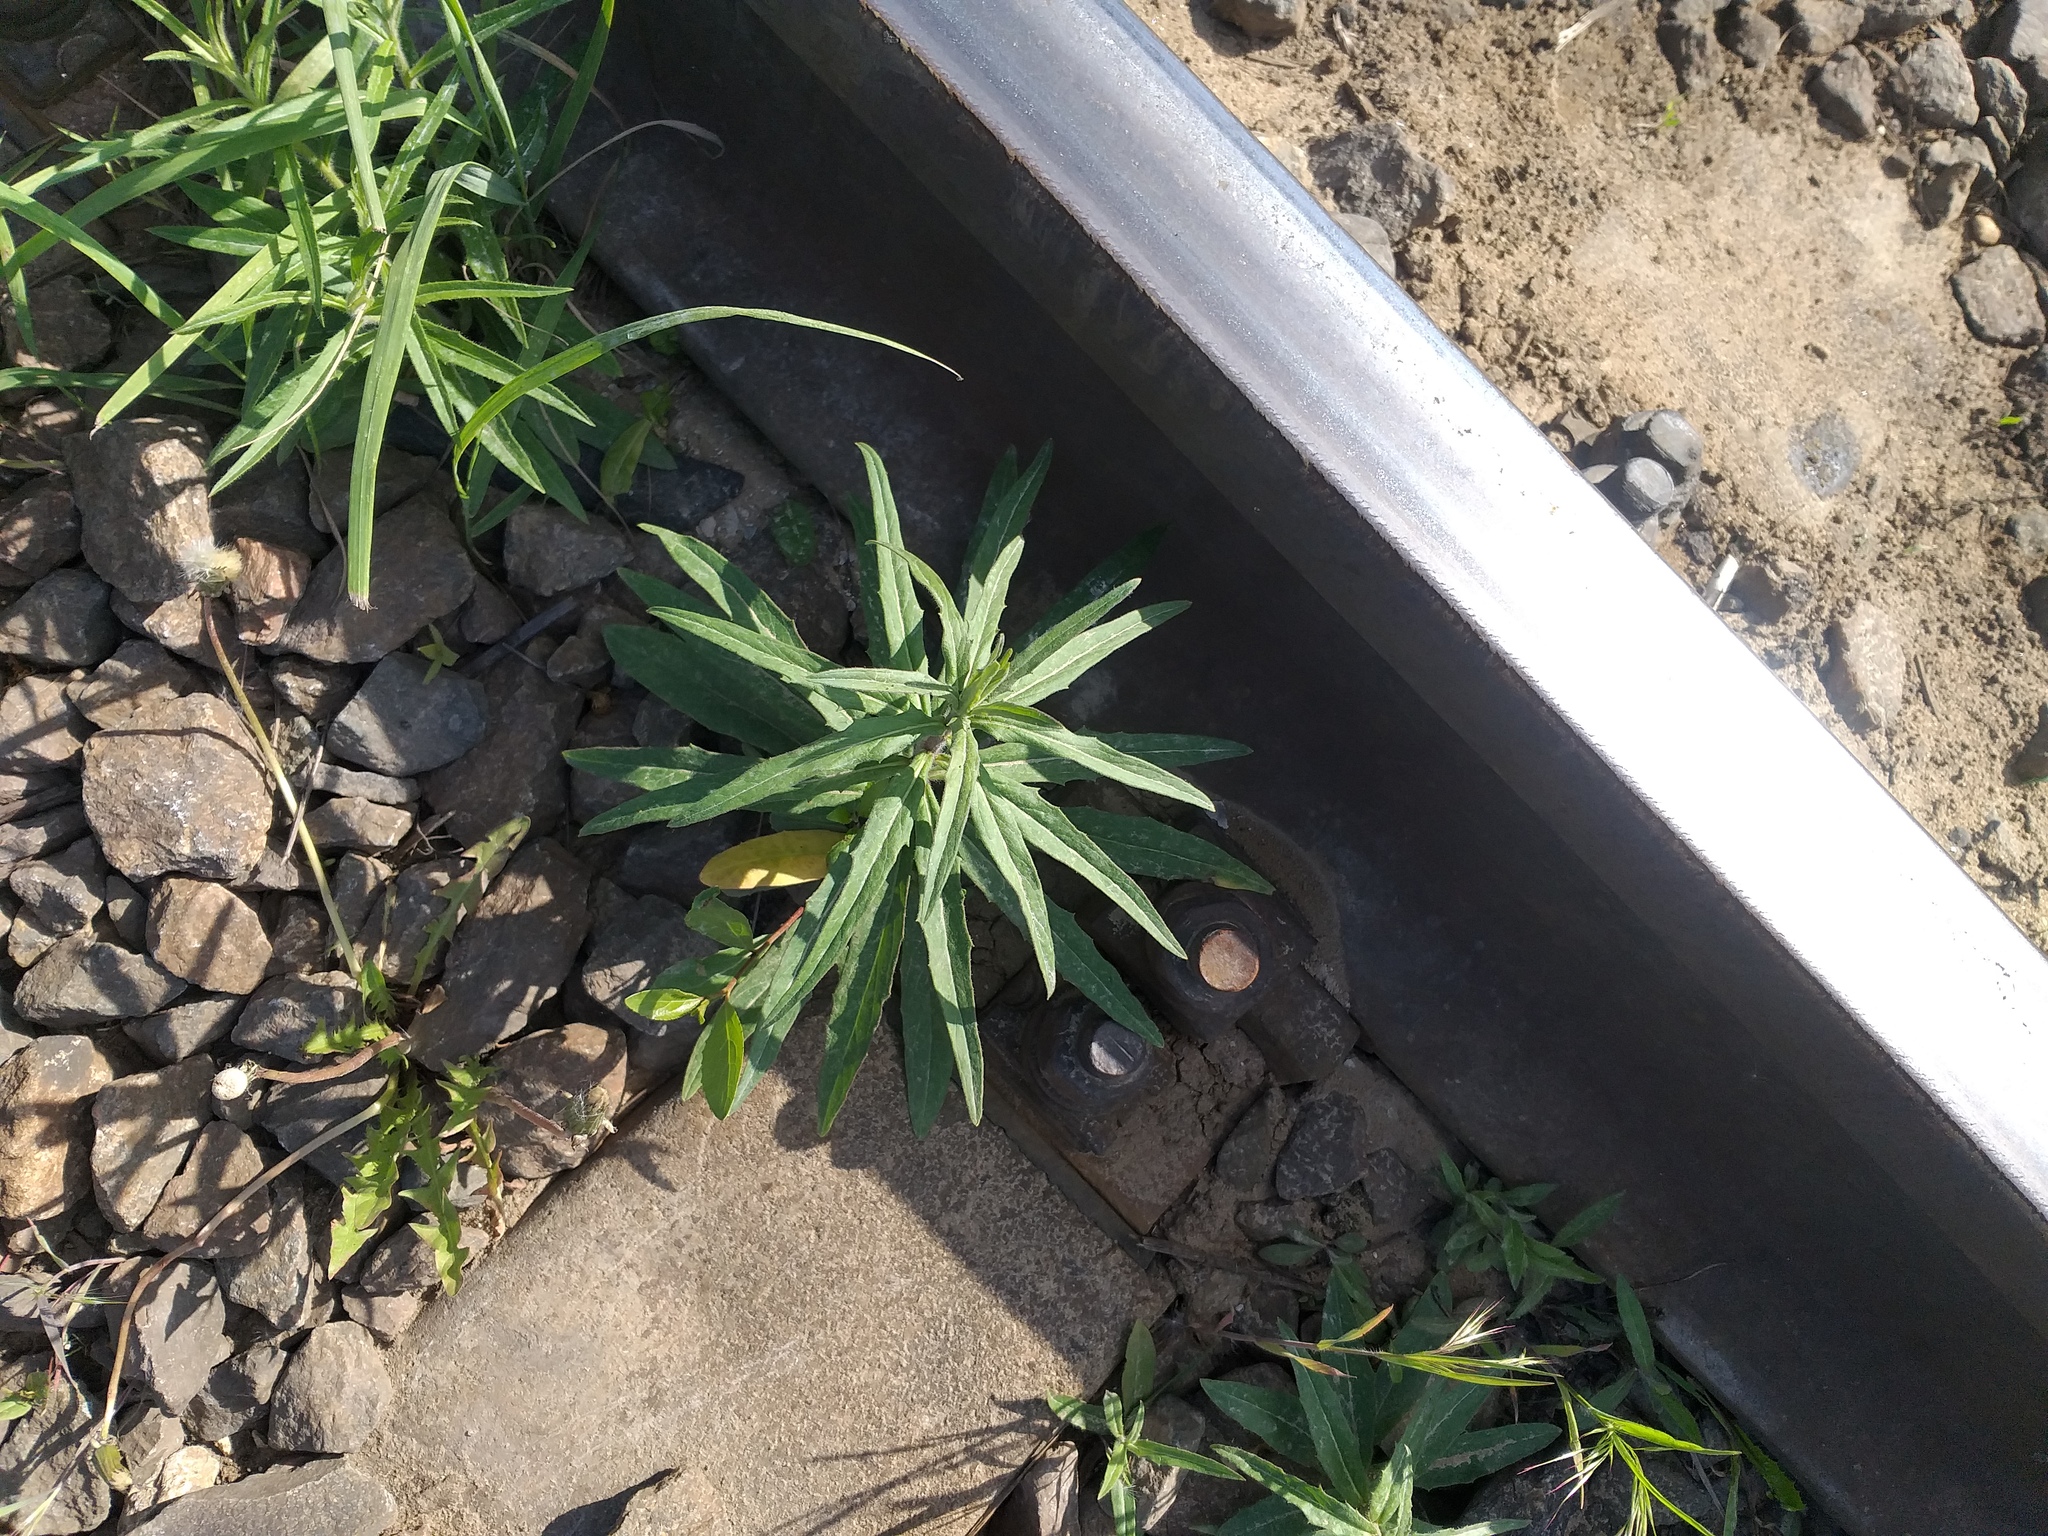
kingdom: Plantae
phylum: Tracheophyta
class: Magnoliopsida
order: Asterales
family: Asteraceae
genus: Hieracium
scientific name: Hieracium umbellatum
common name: Northern hawkweed
